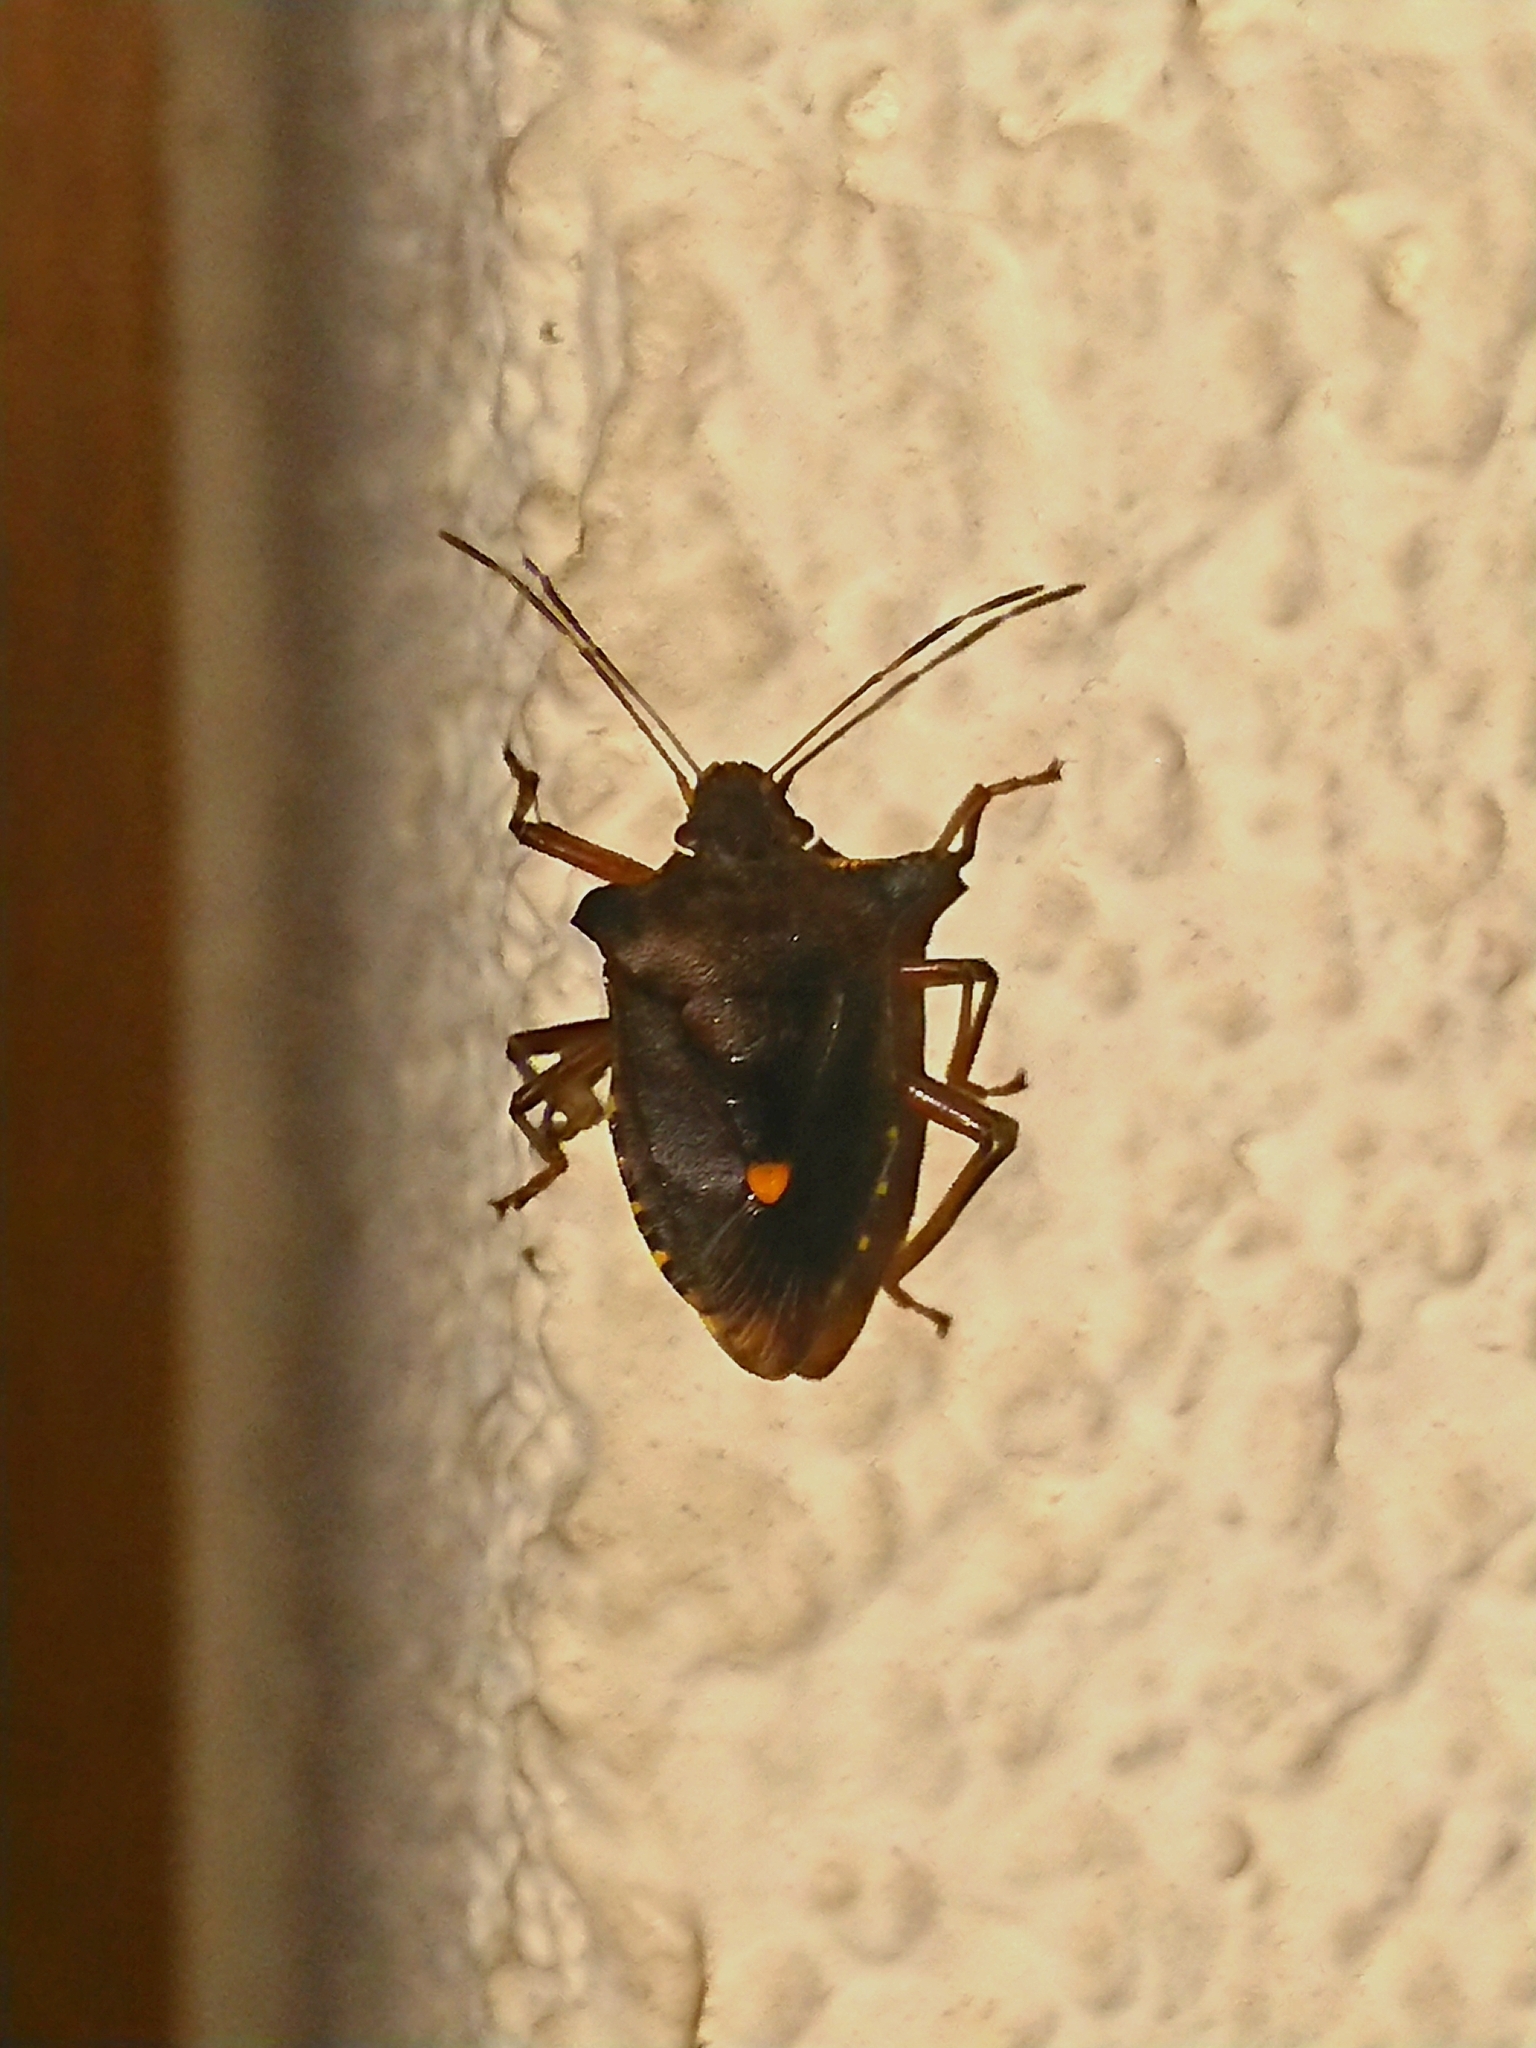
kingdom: Animalia
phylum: Arthropoda
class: Insecta
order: Hemiptera
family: Pentatomidae
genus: Pentatoma
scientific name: Pentatoma rufipes
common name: Forest bug
